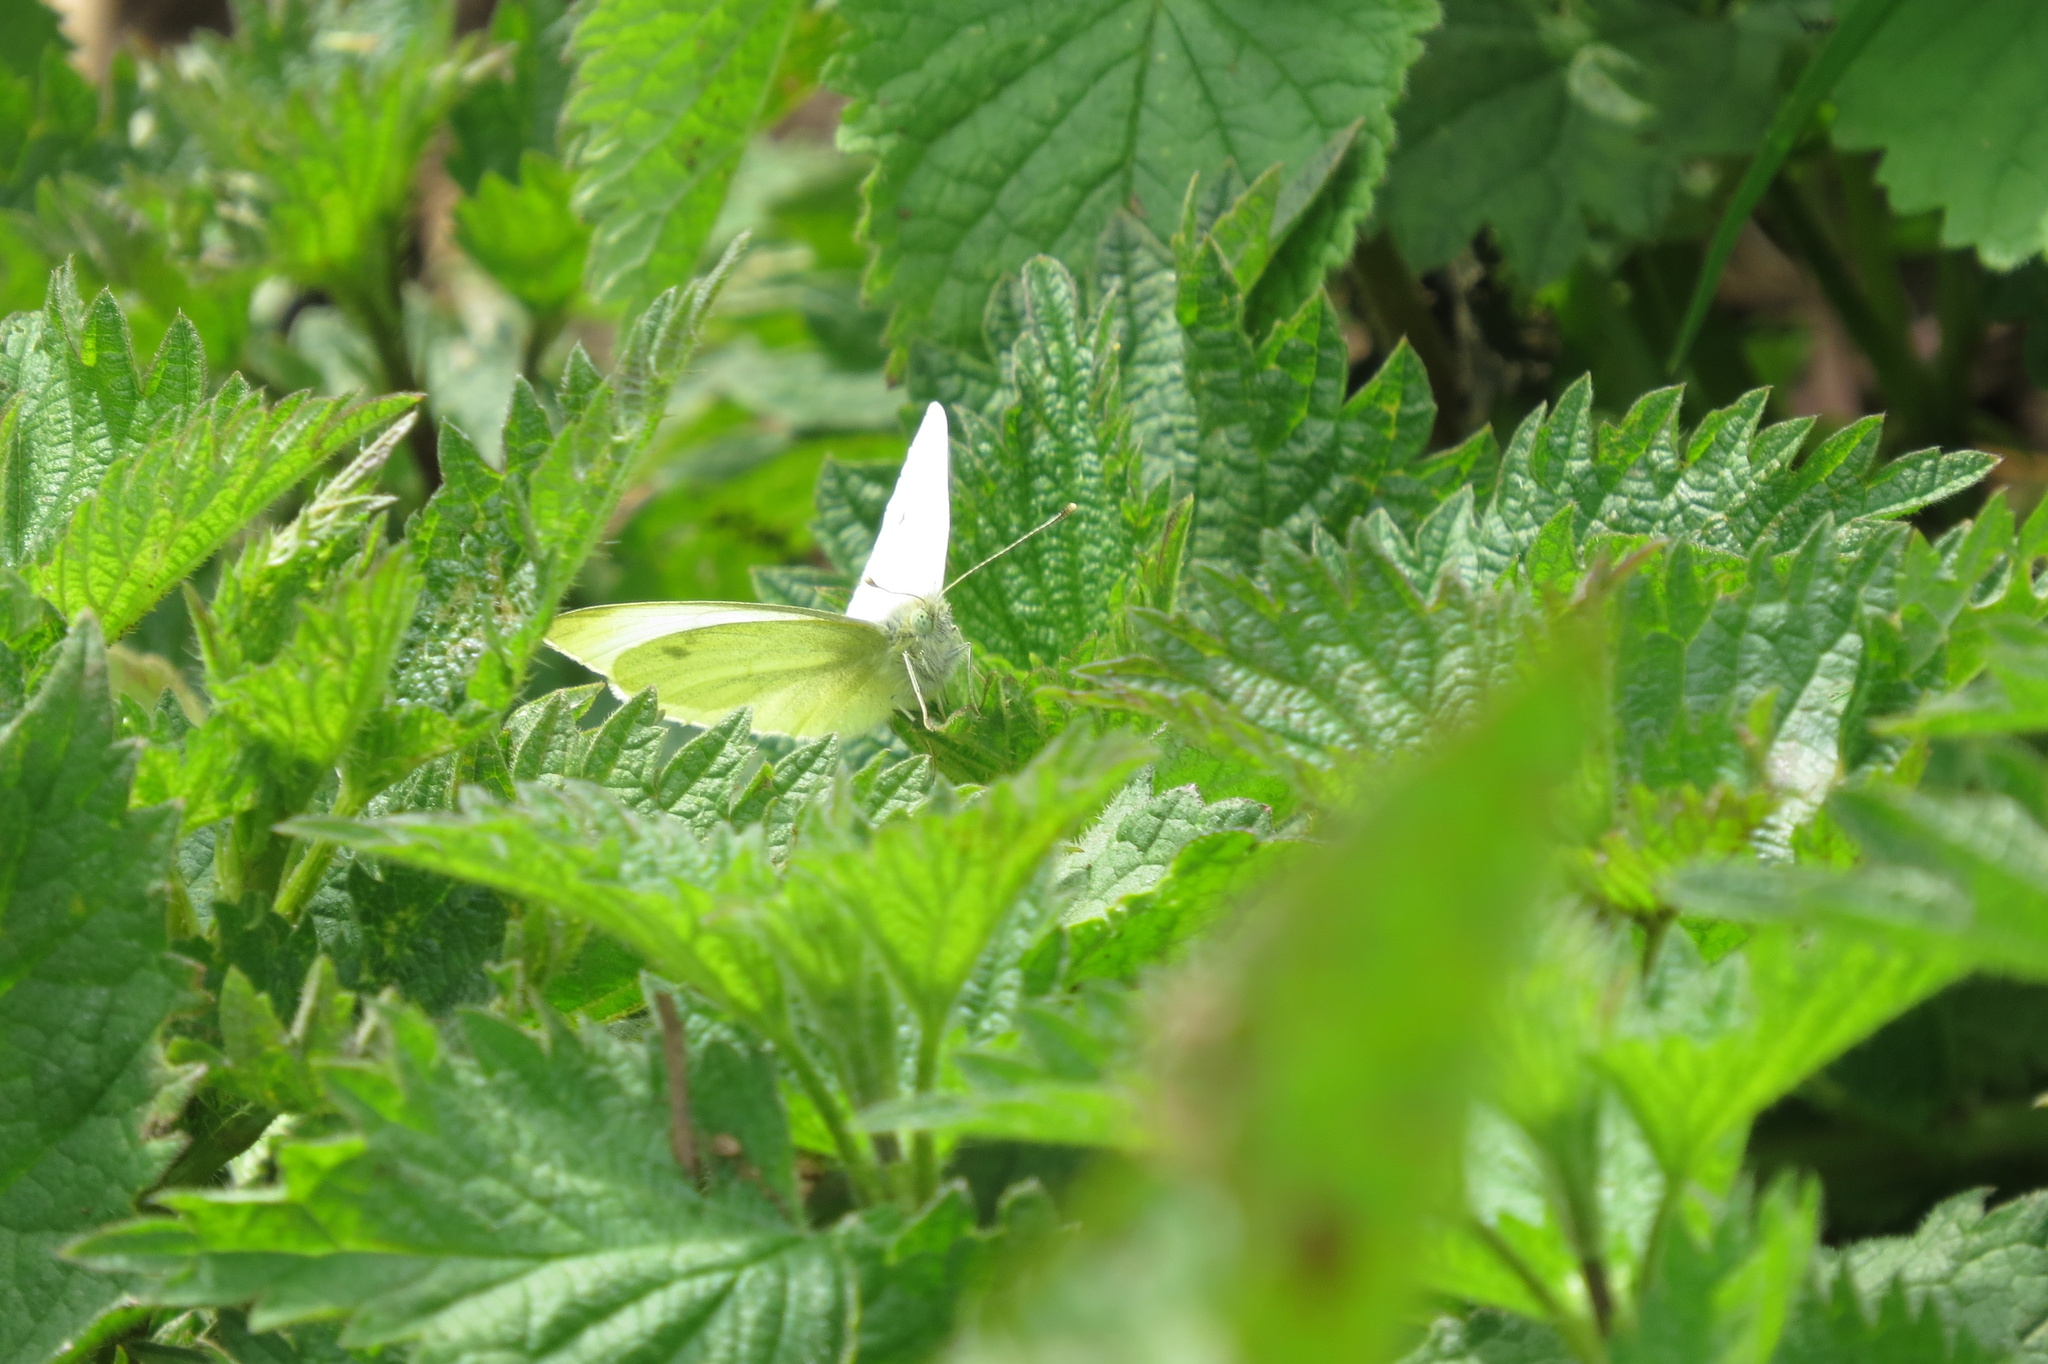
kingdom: Animalia
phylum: Arthropoda
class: Insecta
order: Lepidoptera
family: Pieridae
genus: Pieris
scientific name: Pieris rapae
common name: Small white
